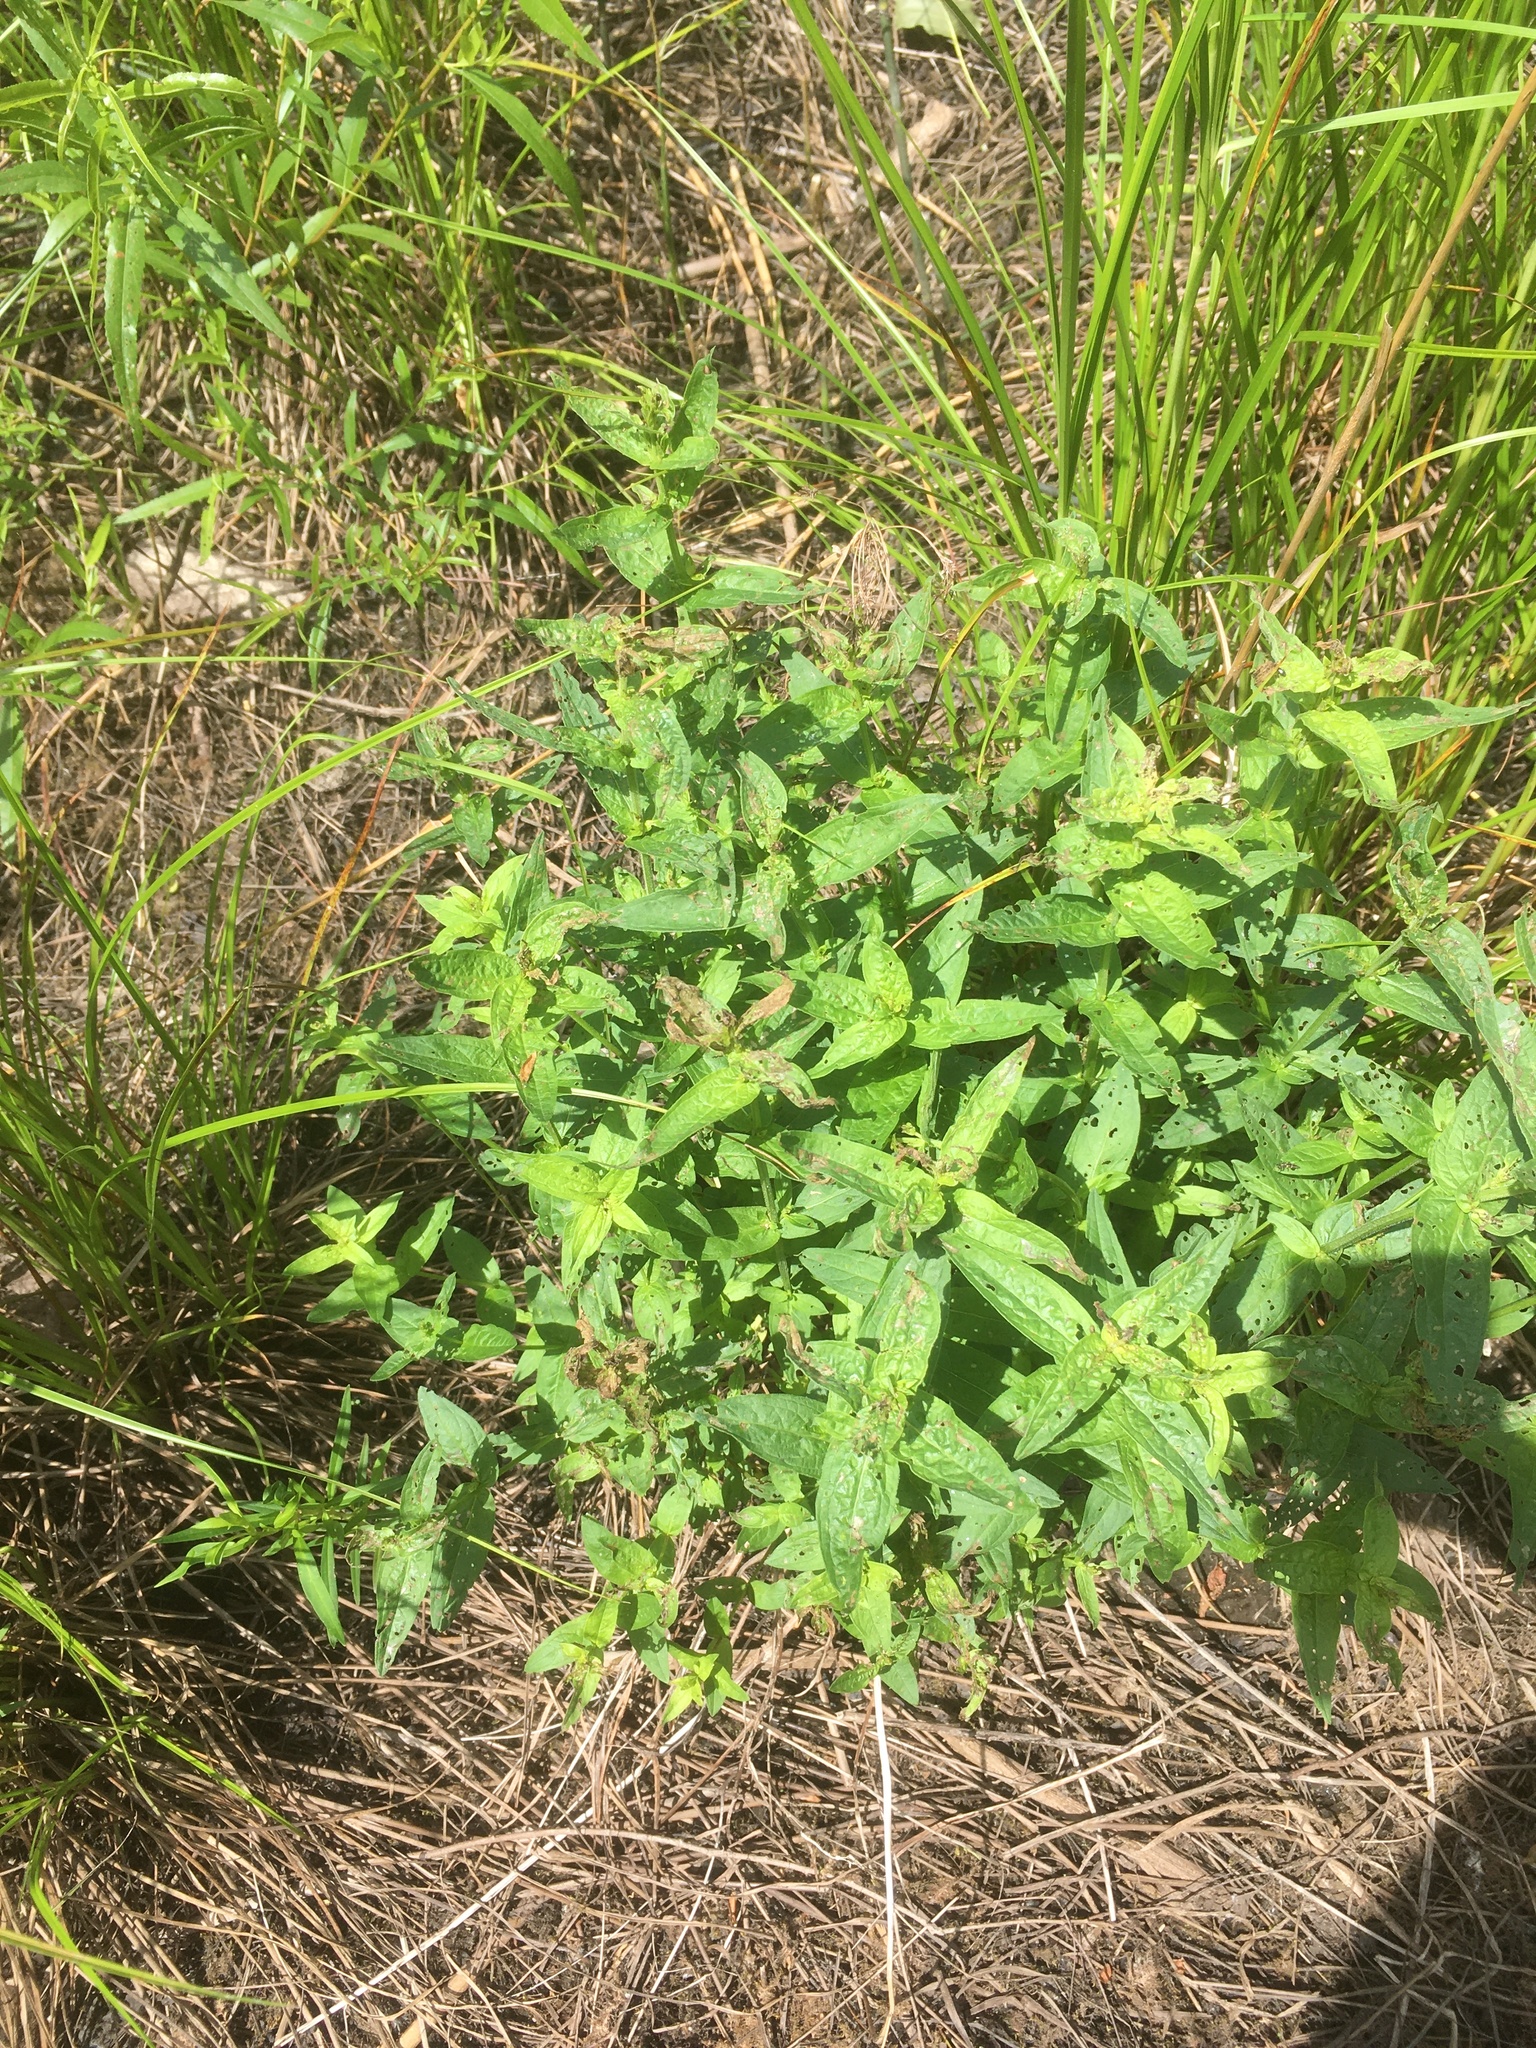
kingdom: Plantae
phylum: Tracheophyta
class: Magnoliopsida
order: Myrtales
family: Lythraceae
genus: Lythrum
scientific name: Lythrum salicaria
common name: Purple loosestrife
